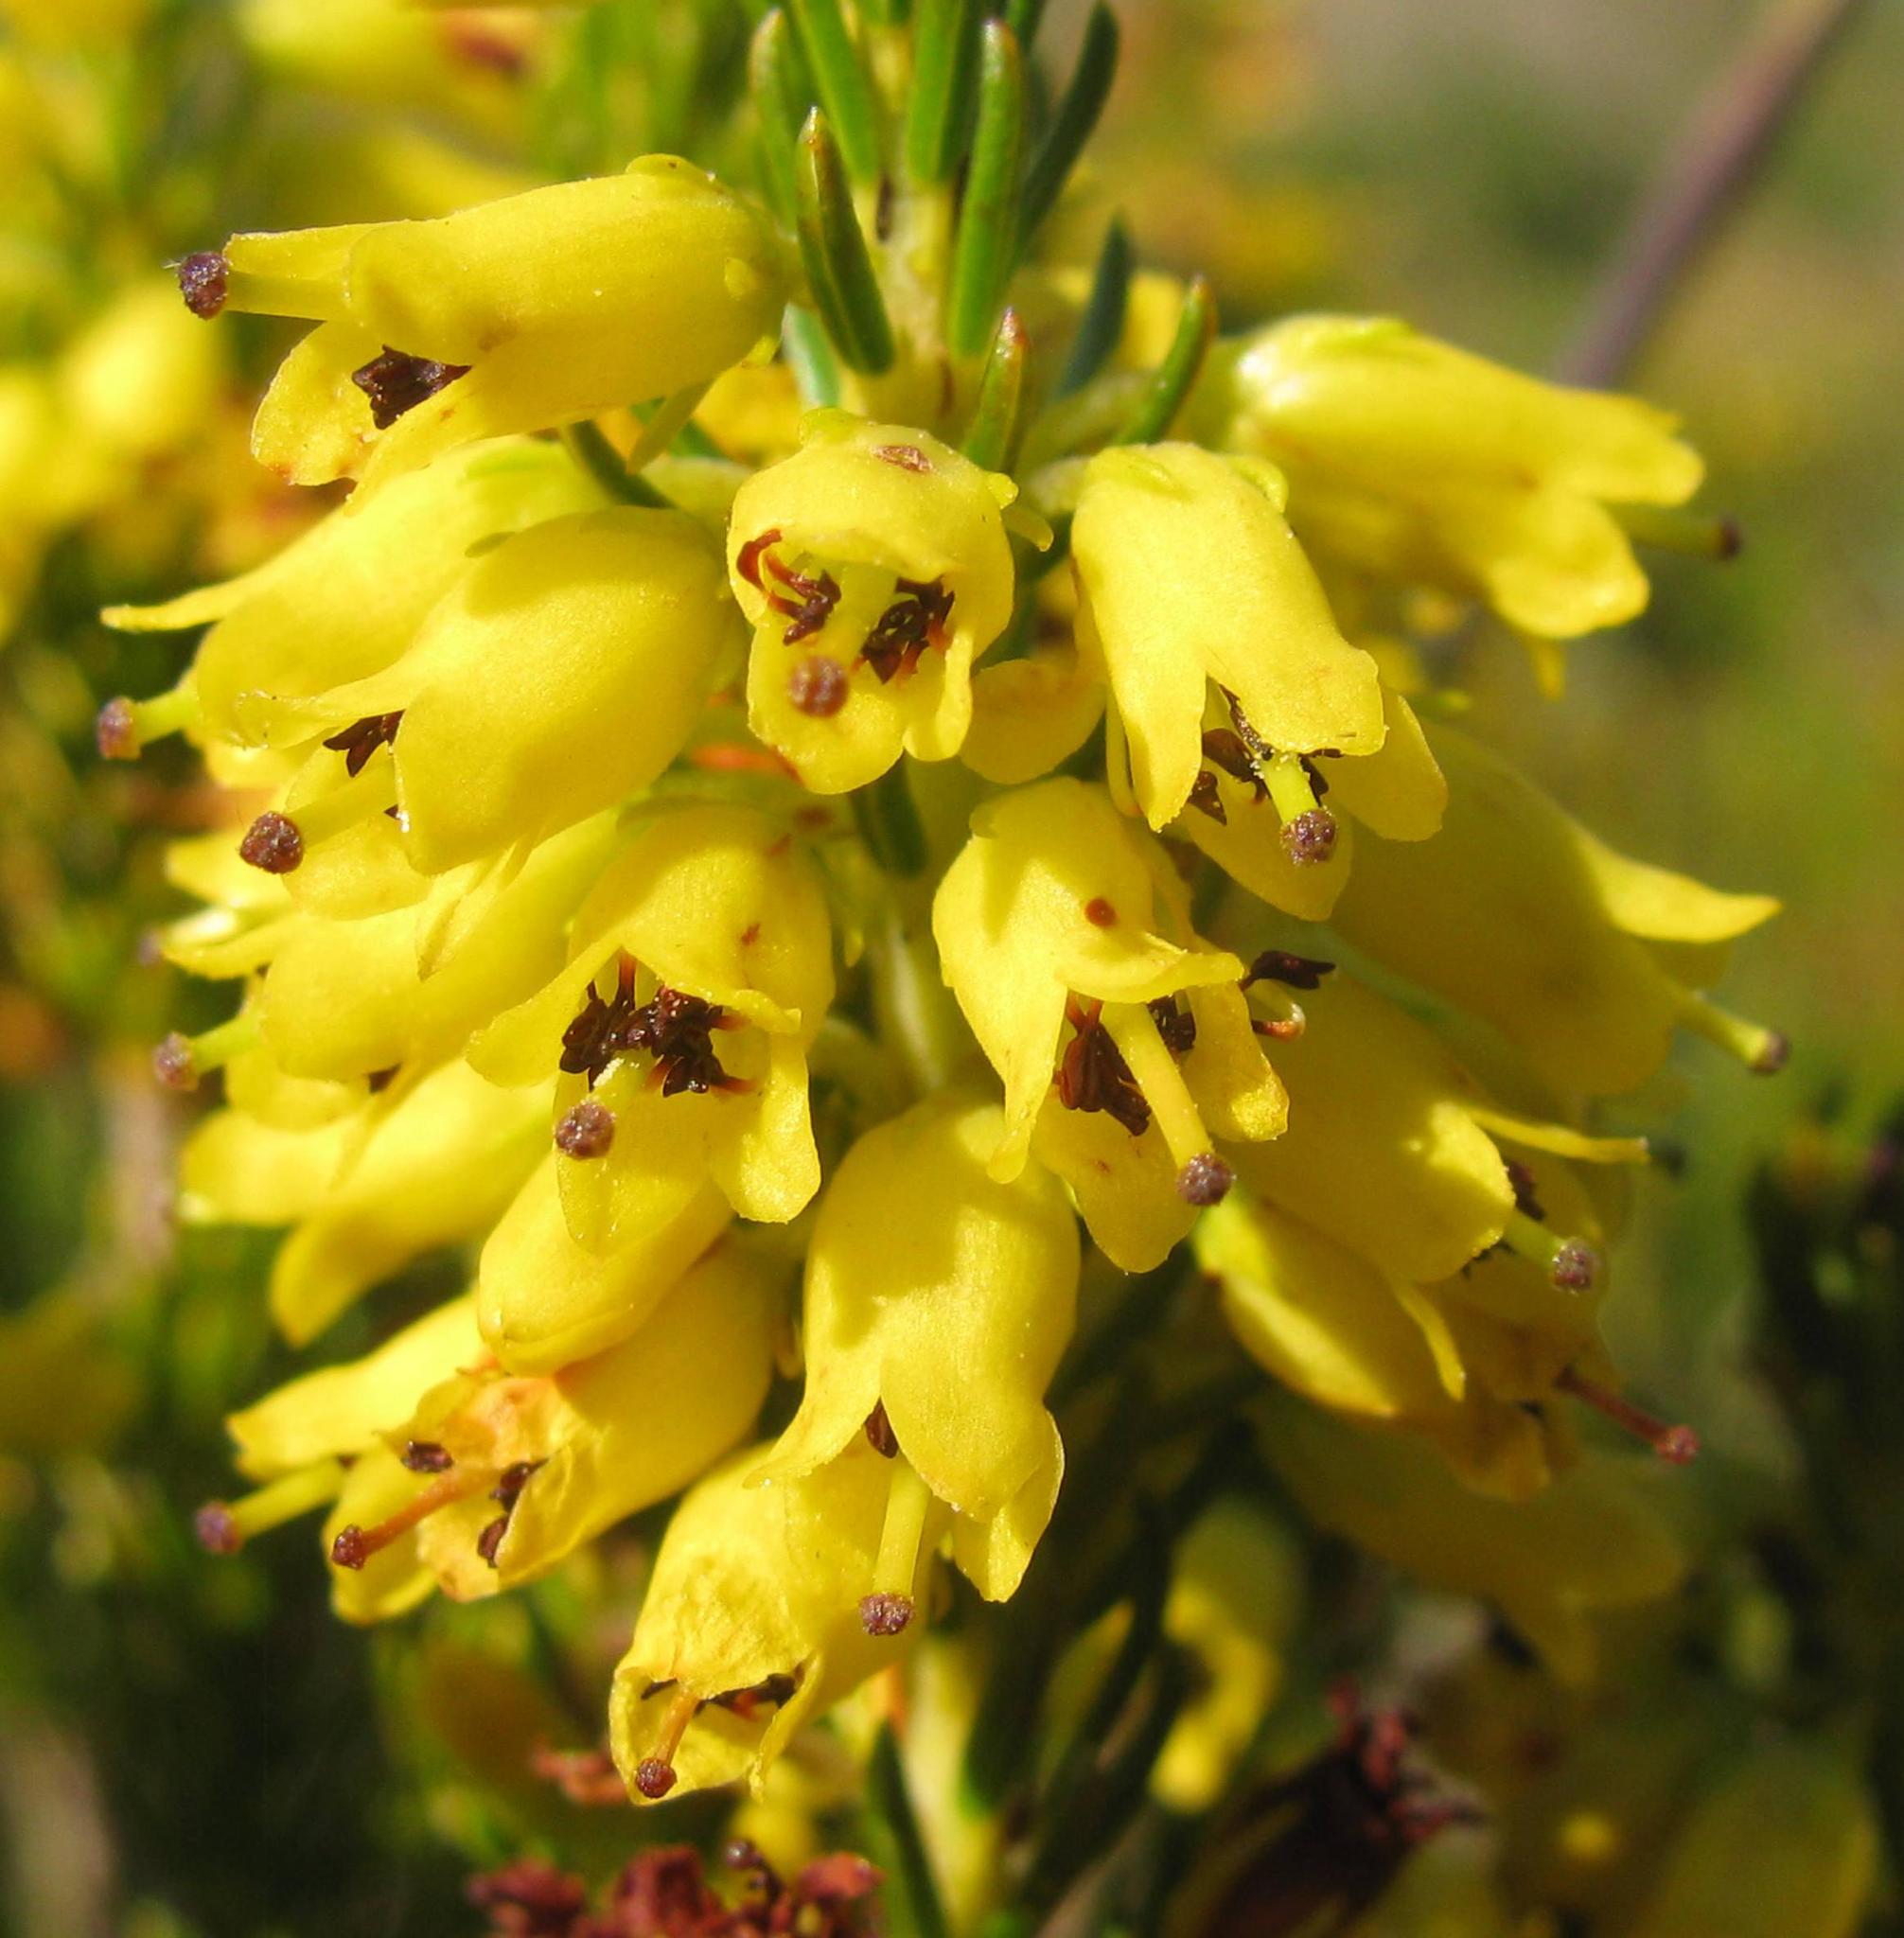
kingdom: Plantae
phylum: Tracheophyta
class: Magnoliopsida
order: Ericales
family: Ericaceae
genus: Erica
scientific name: Erica parilis
